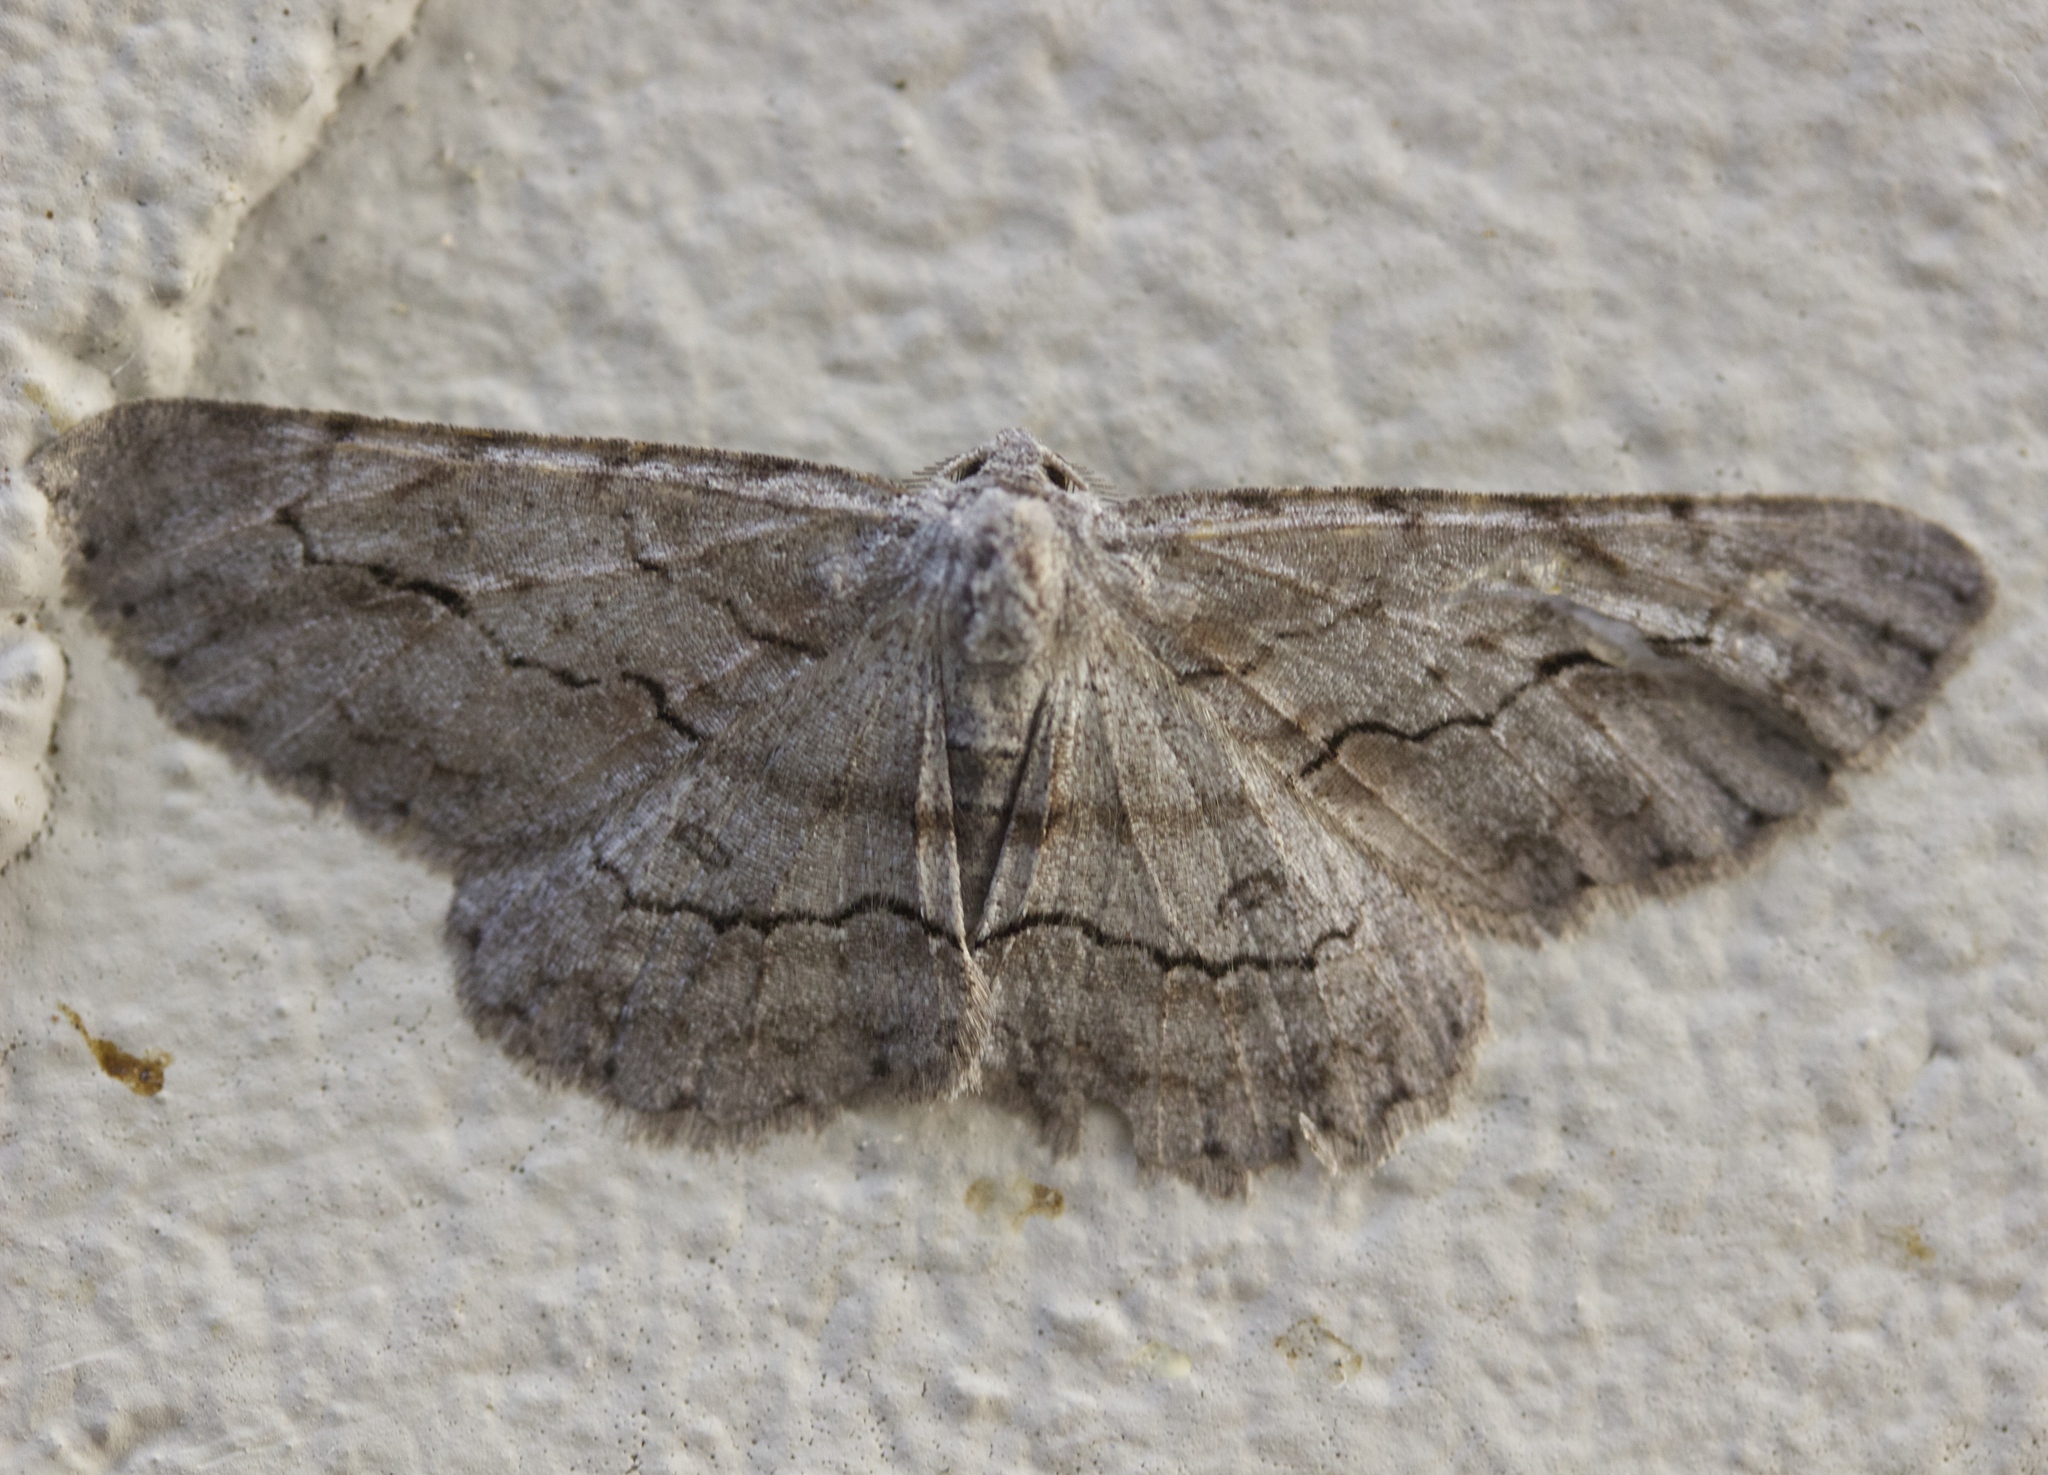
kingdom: Animalia
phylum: Arthropoda
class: Insecta
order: Lepidoptera
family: Geometridae
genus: Stenoporpia
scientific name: Stenoporpia pulmonaria
